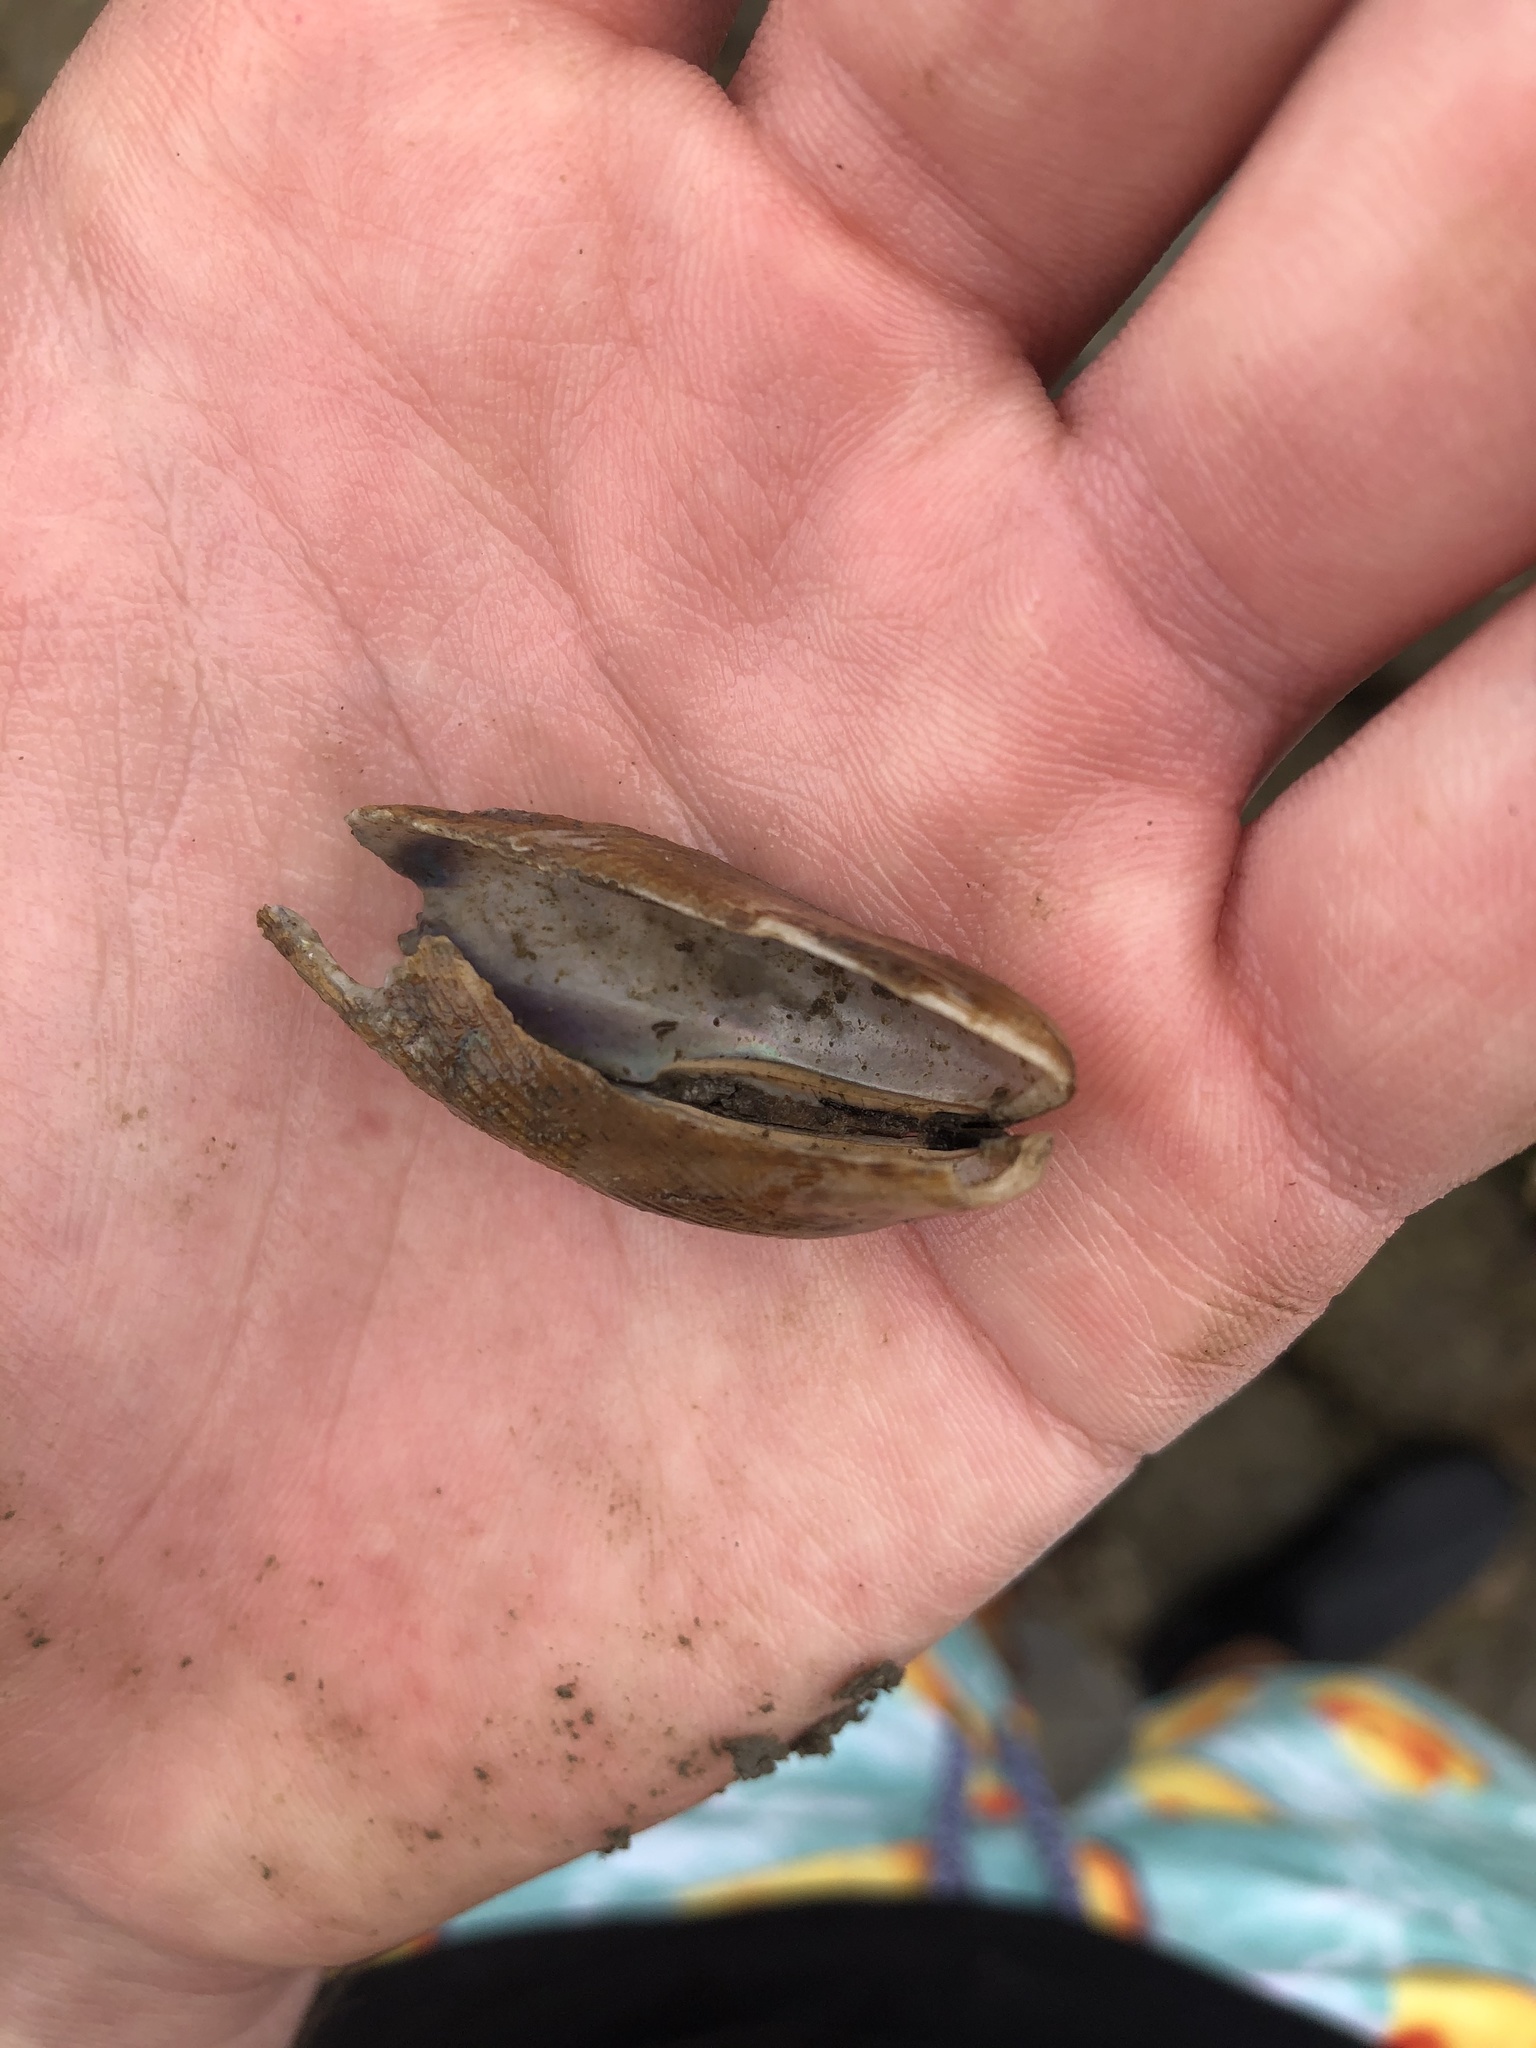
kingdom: Animalia
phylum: Mollusca
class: Bivalvia
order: Mytilida
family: Mytilidae
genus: Geukensia
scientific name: Geukensia demissa
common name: Ribbed mussel
